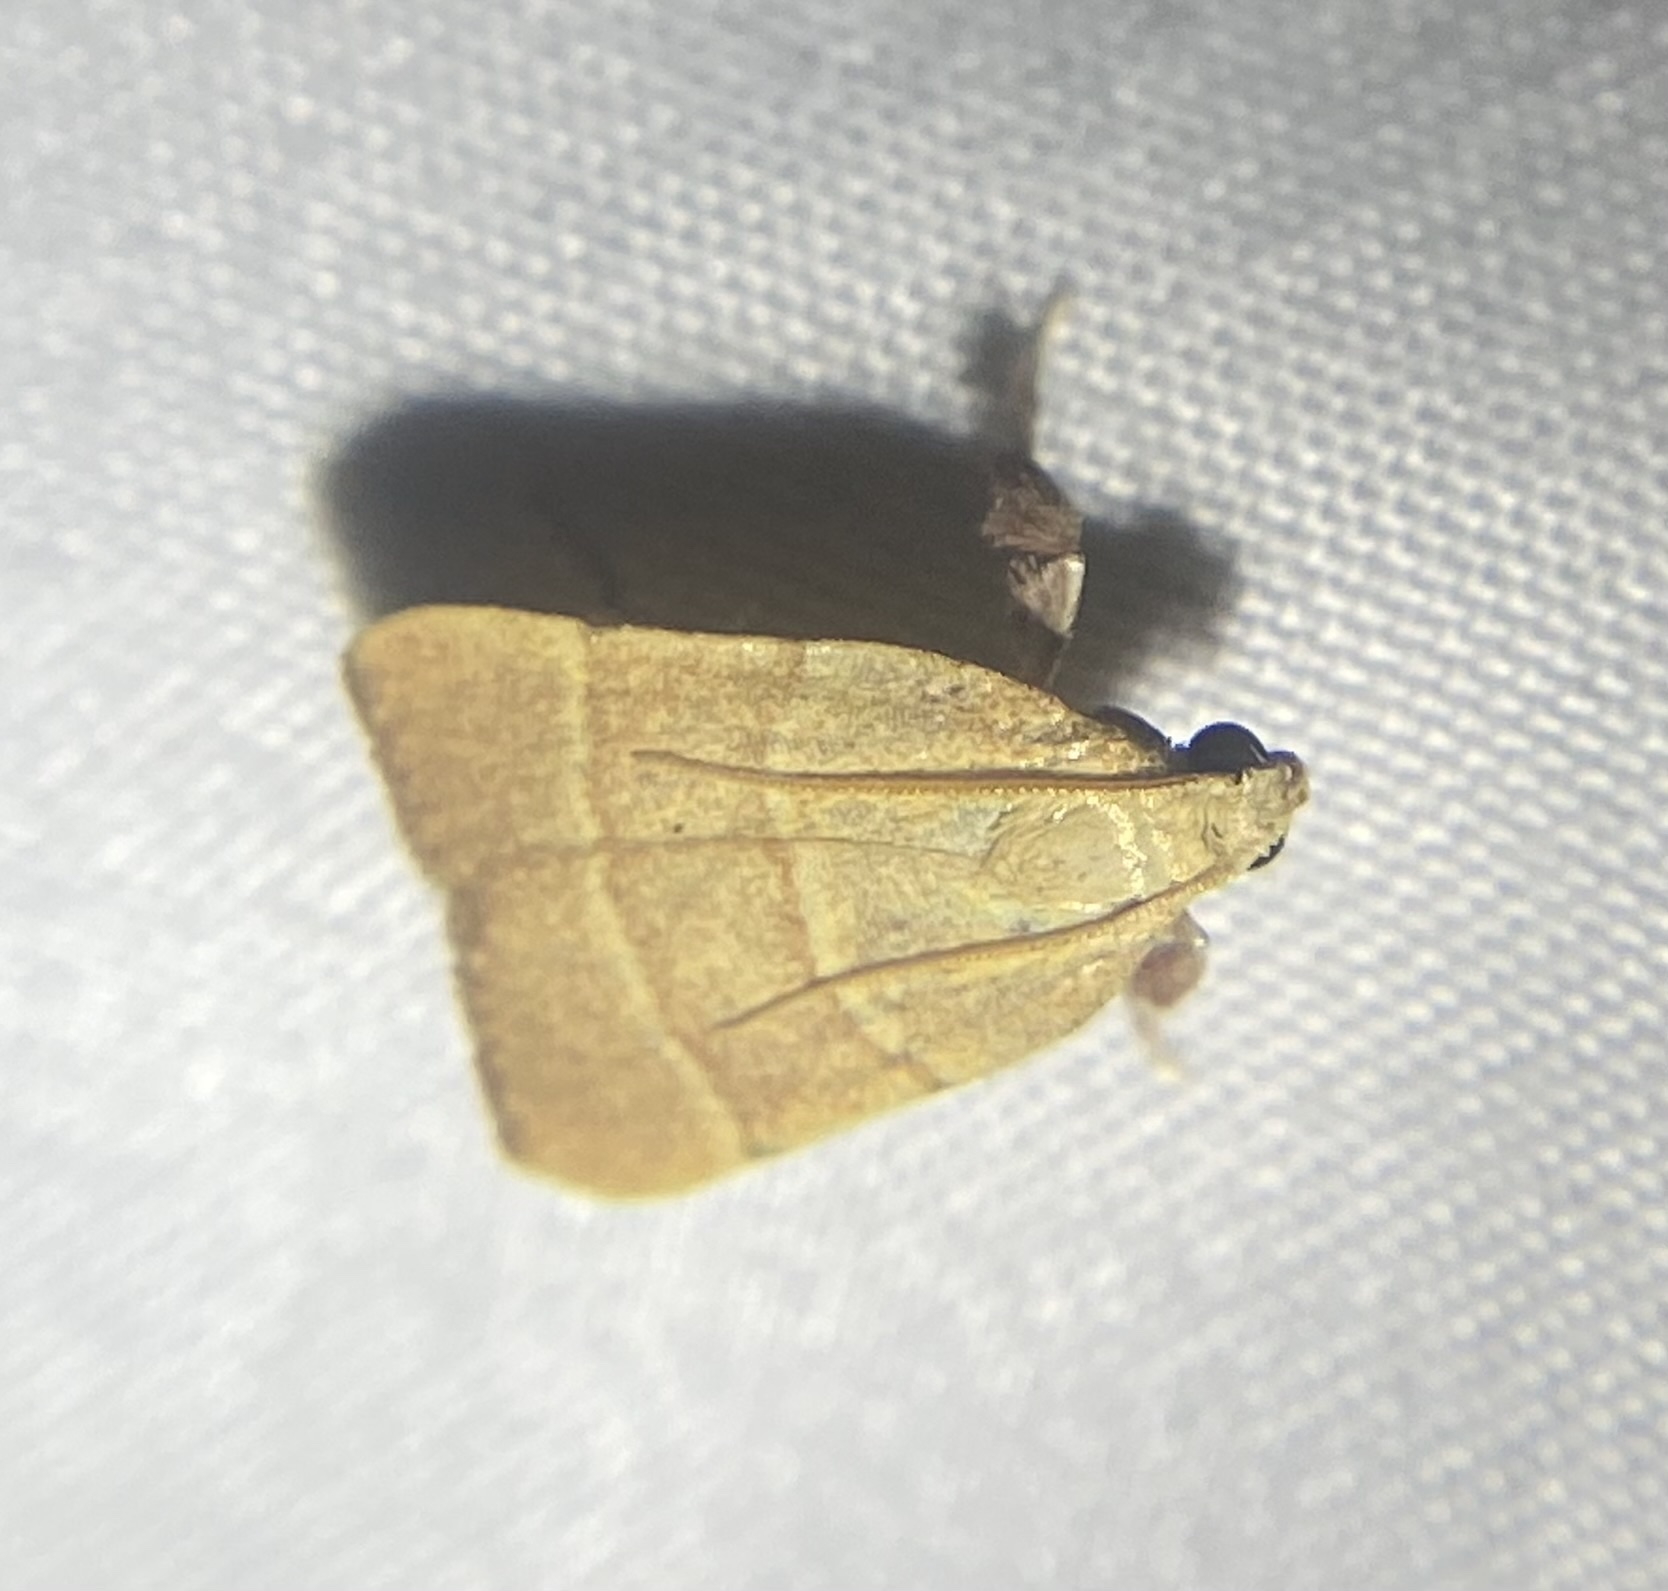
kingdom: Animalia
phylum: Arthropoda
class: Insecta
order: Lepidoptera
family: Pyralidae
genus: Parachma
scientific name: Parachma ochracealis
